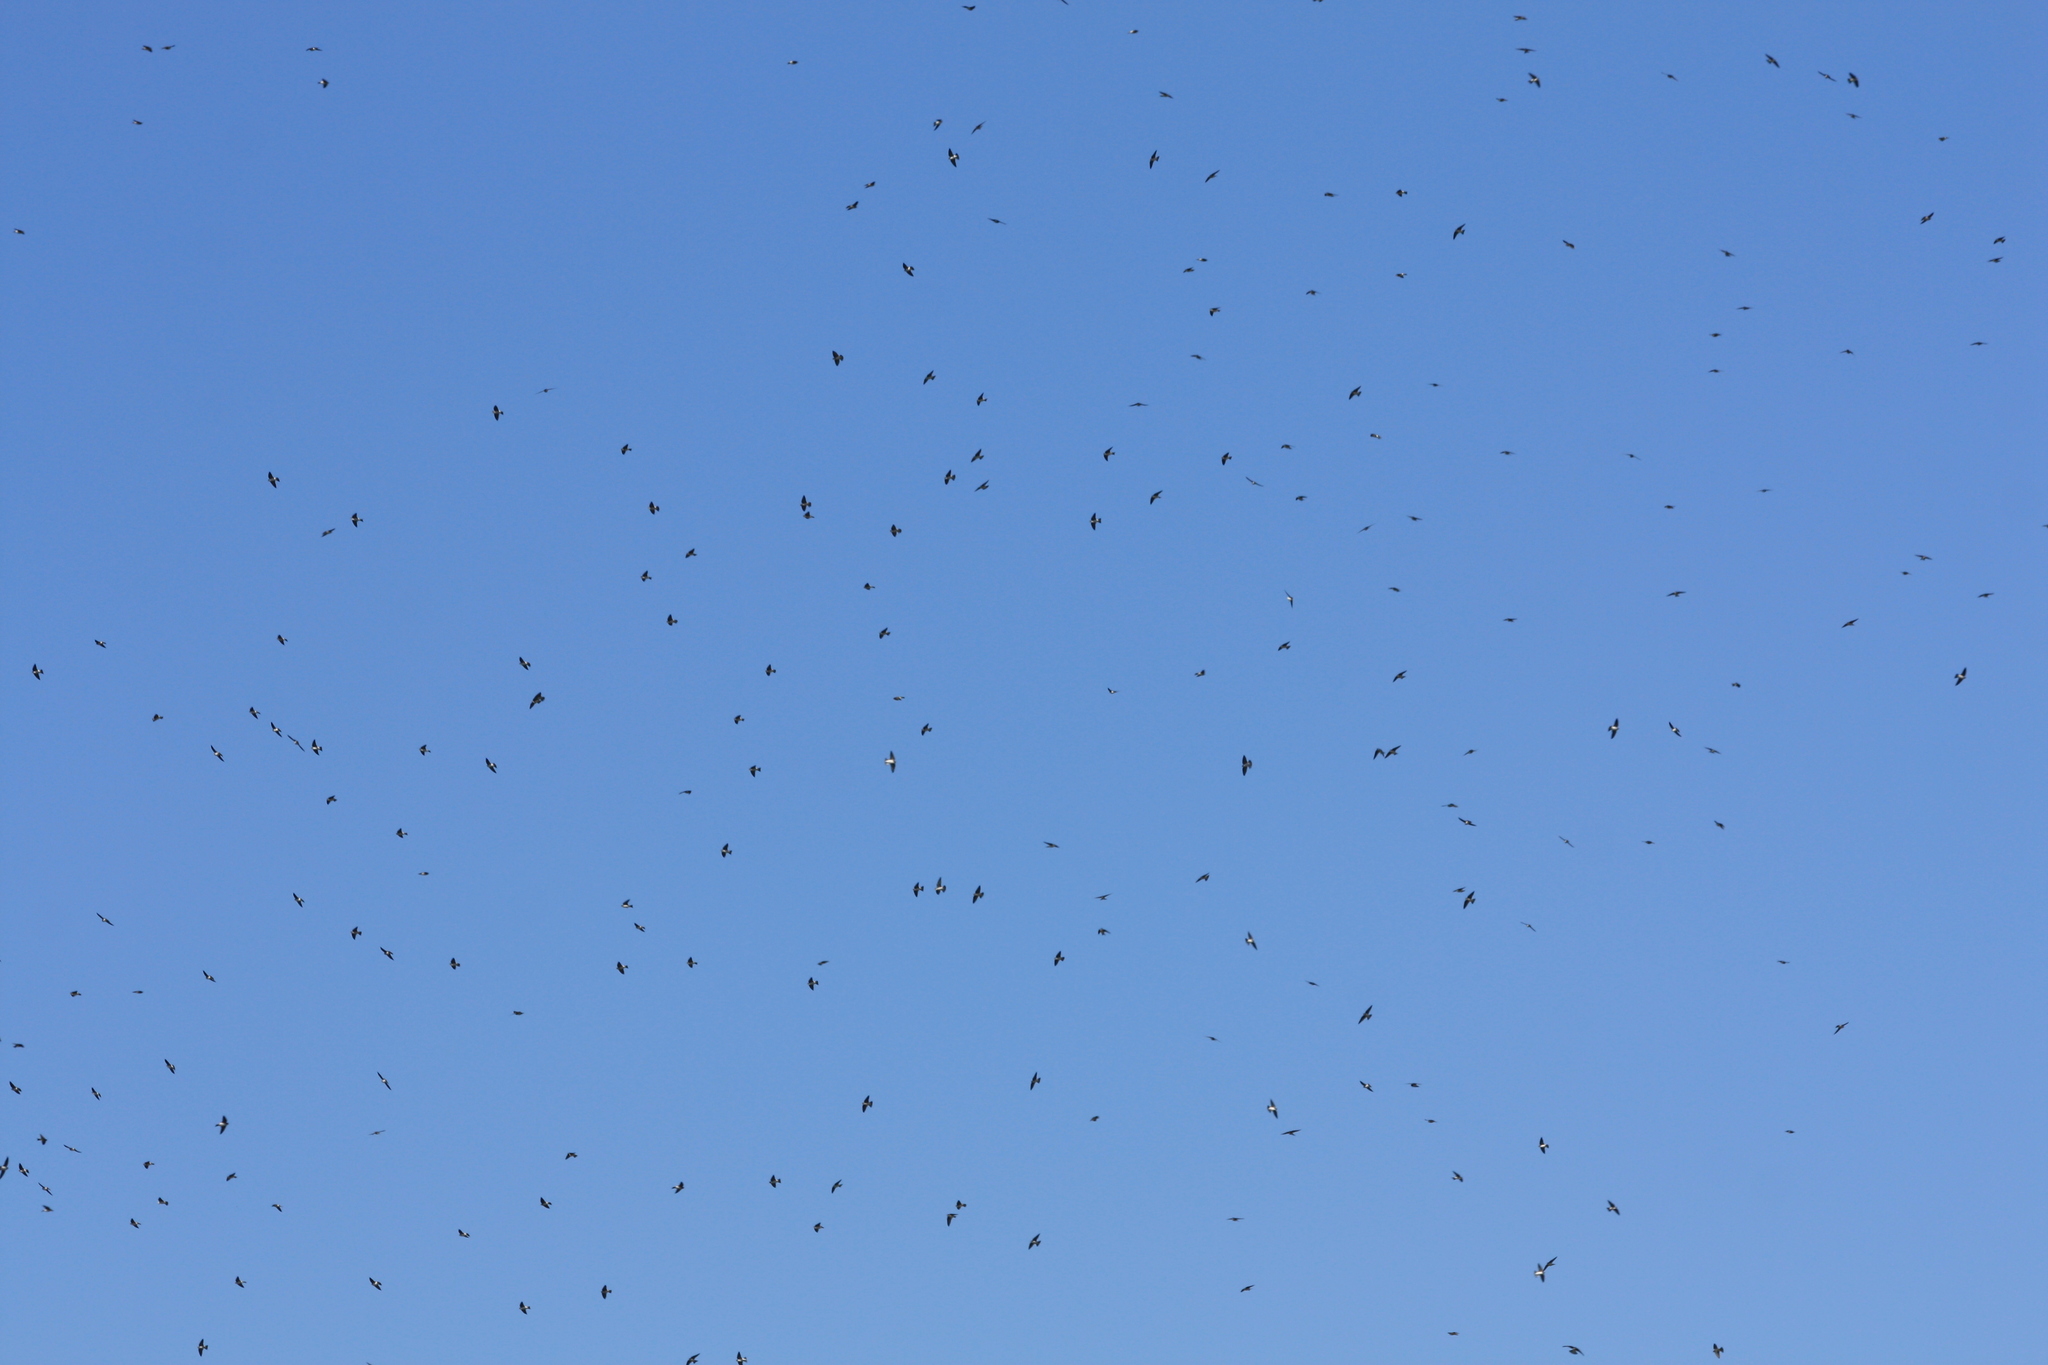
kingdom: Animalia
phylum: Chordata
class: Aves
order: Passeriformes
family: Hirundinidae
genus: Tachycineta
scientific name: Tachycineta bicolor
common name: Tree swallow
